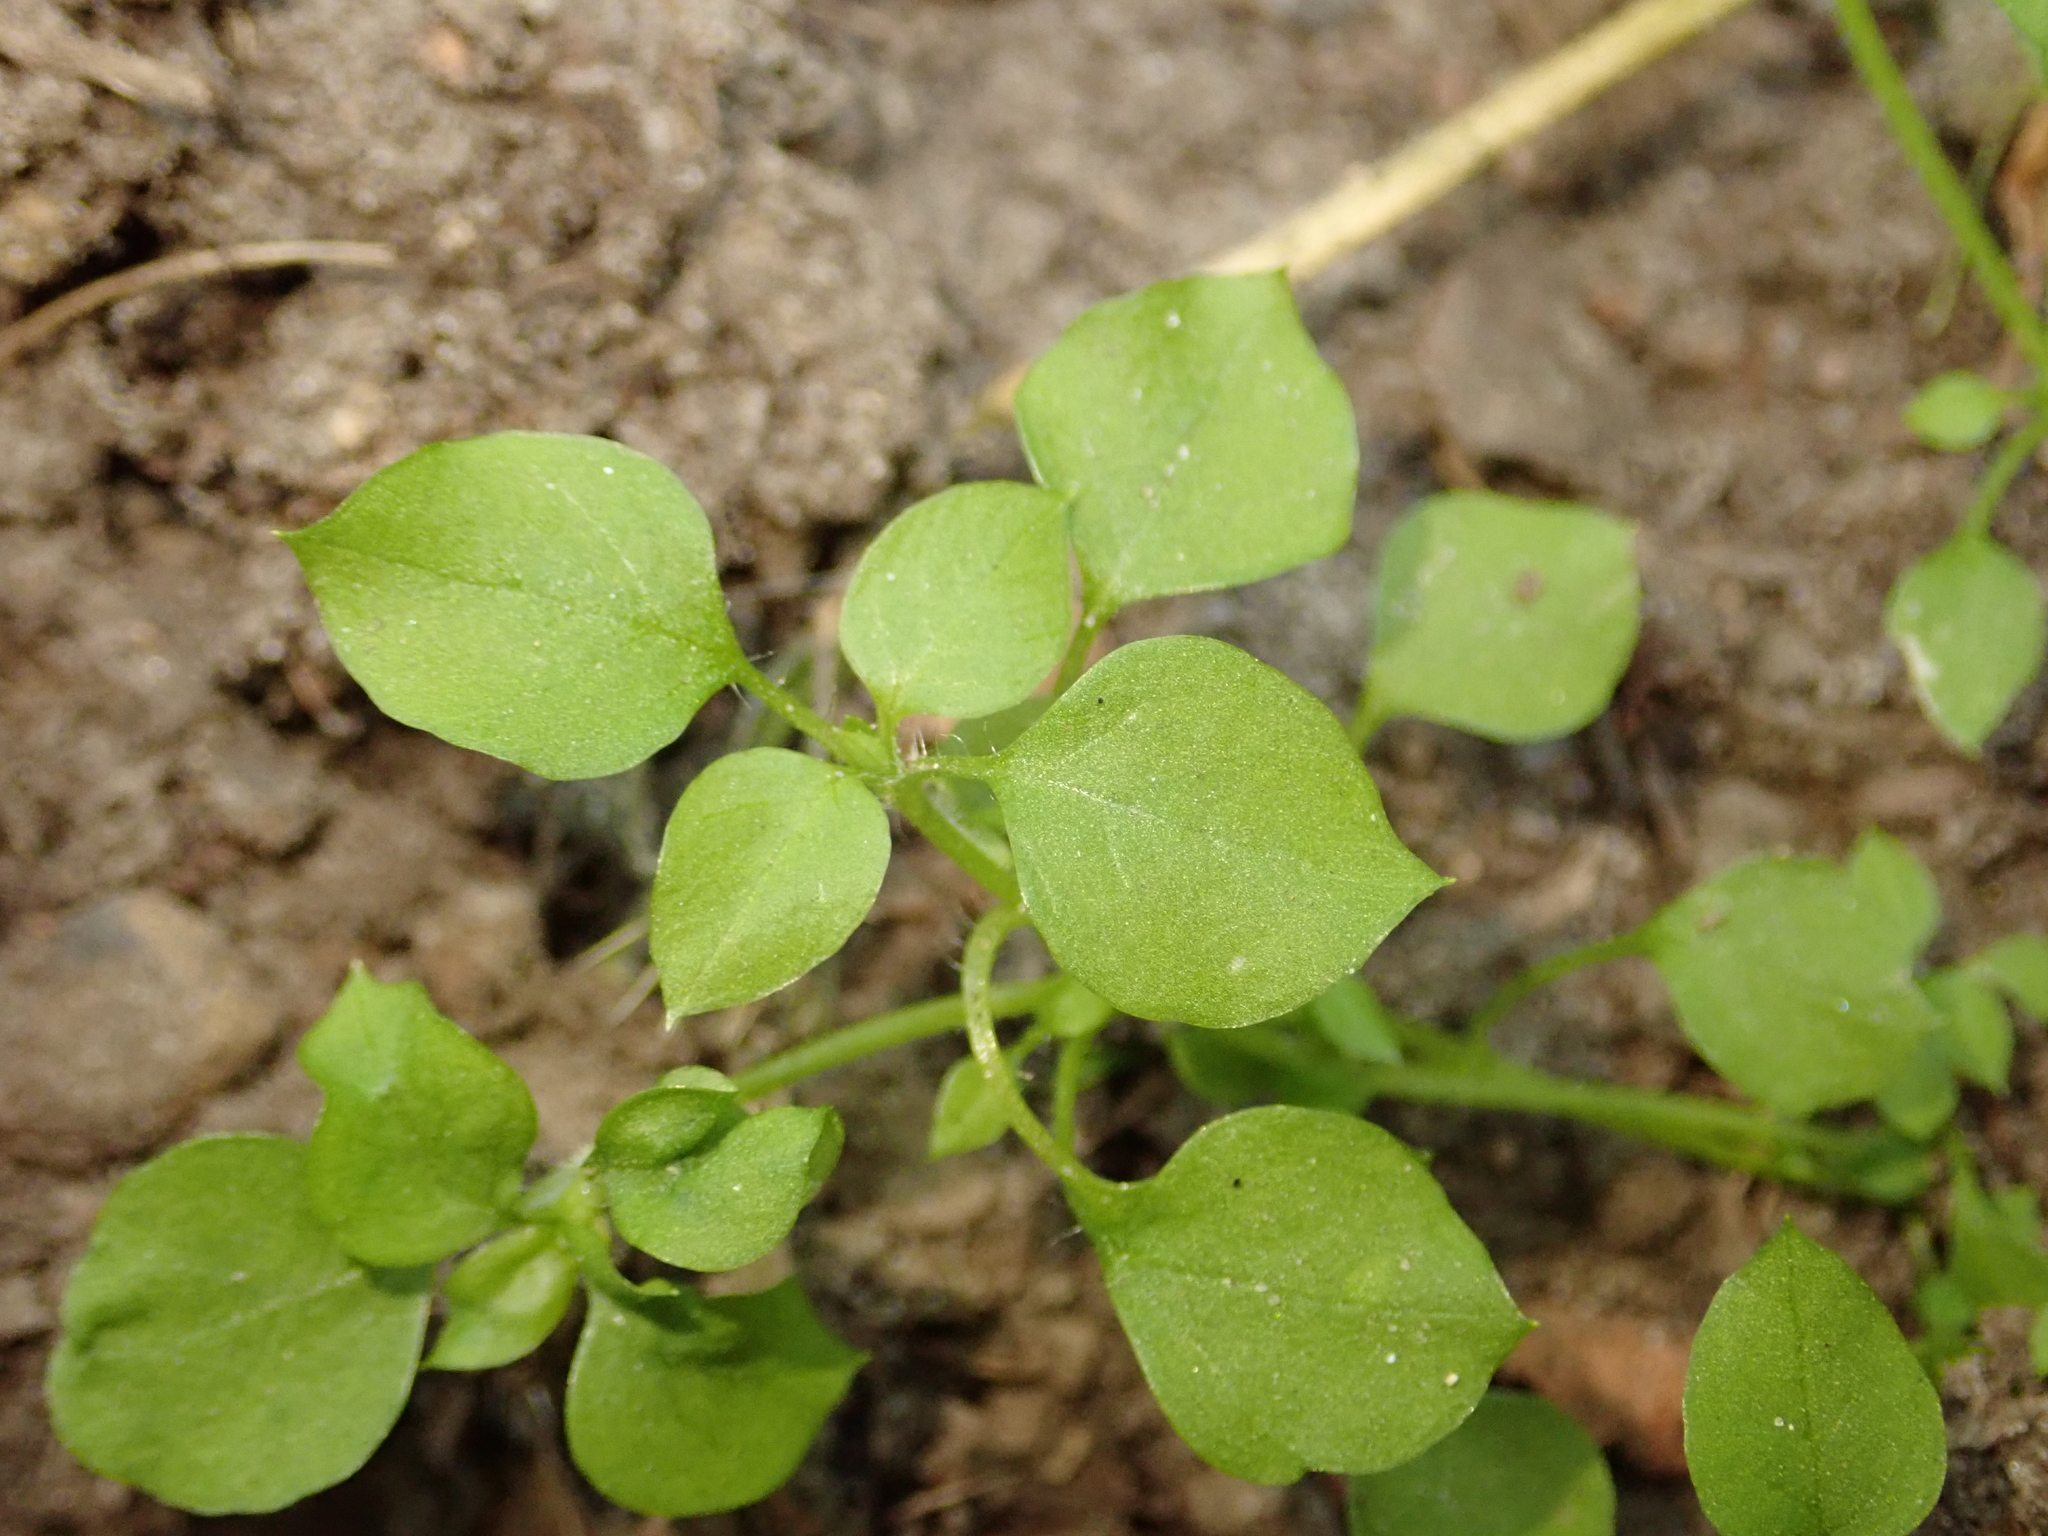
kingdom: Plantae
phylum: Tracheophyta
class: Magnoliopsida
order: Caryophyllales
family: Caryophyllaceae
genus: Stellaria
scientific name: Stellaria media
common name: Common chickweed
